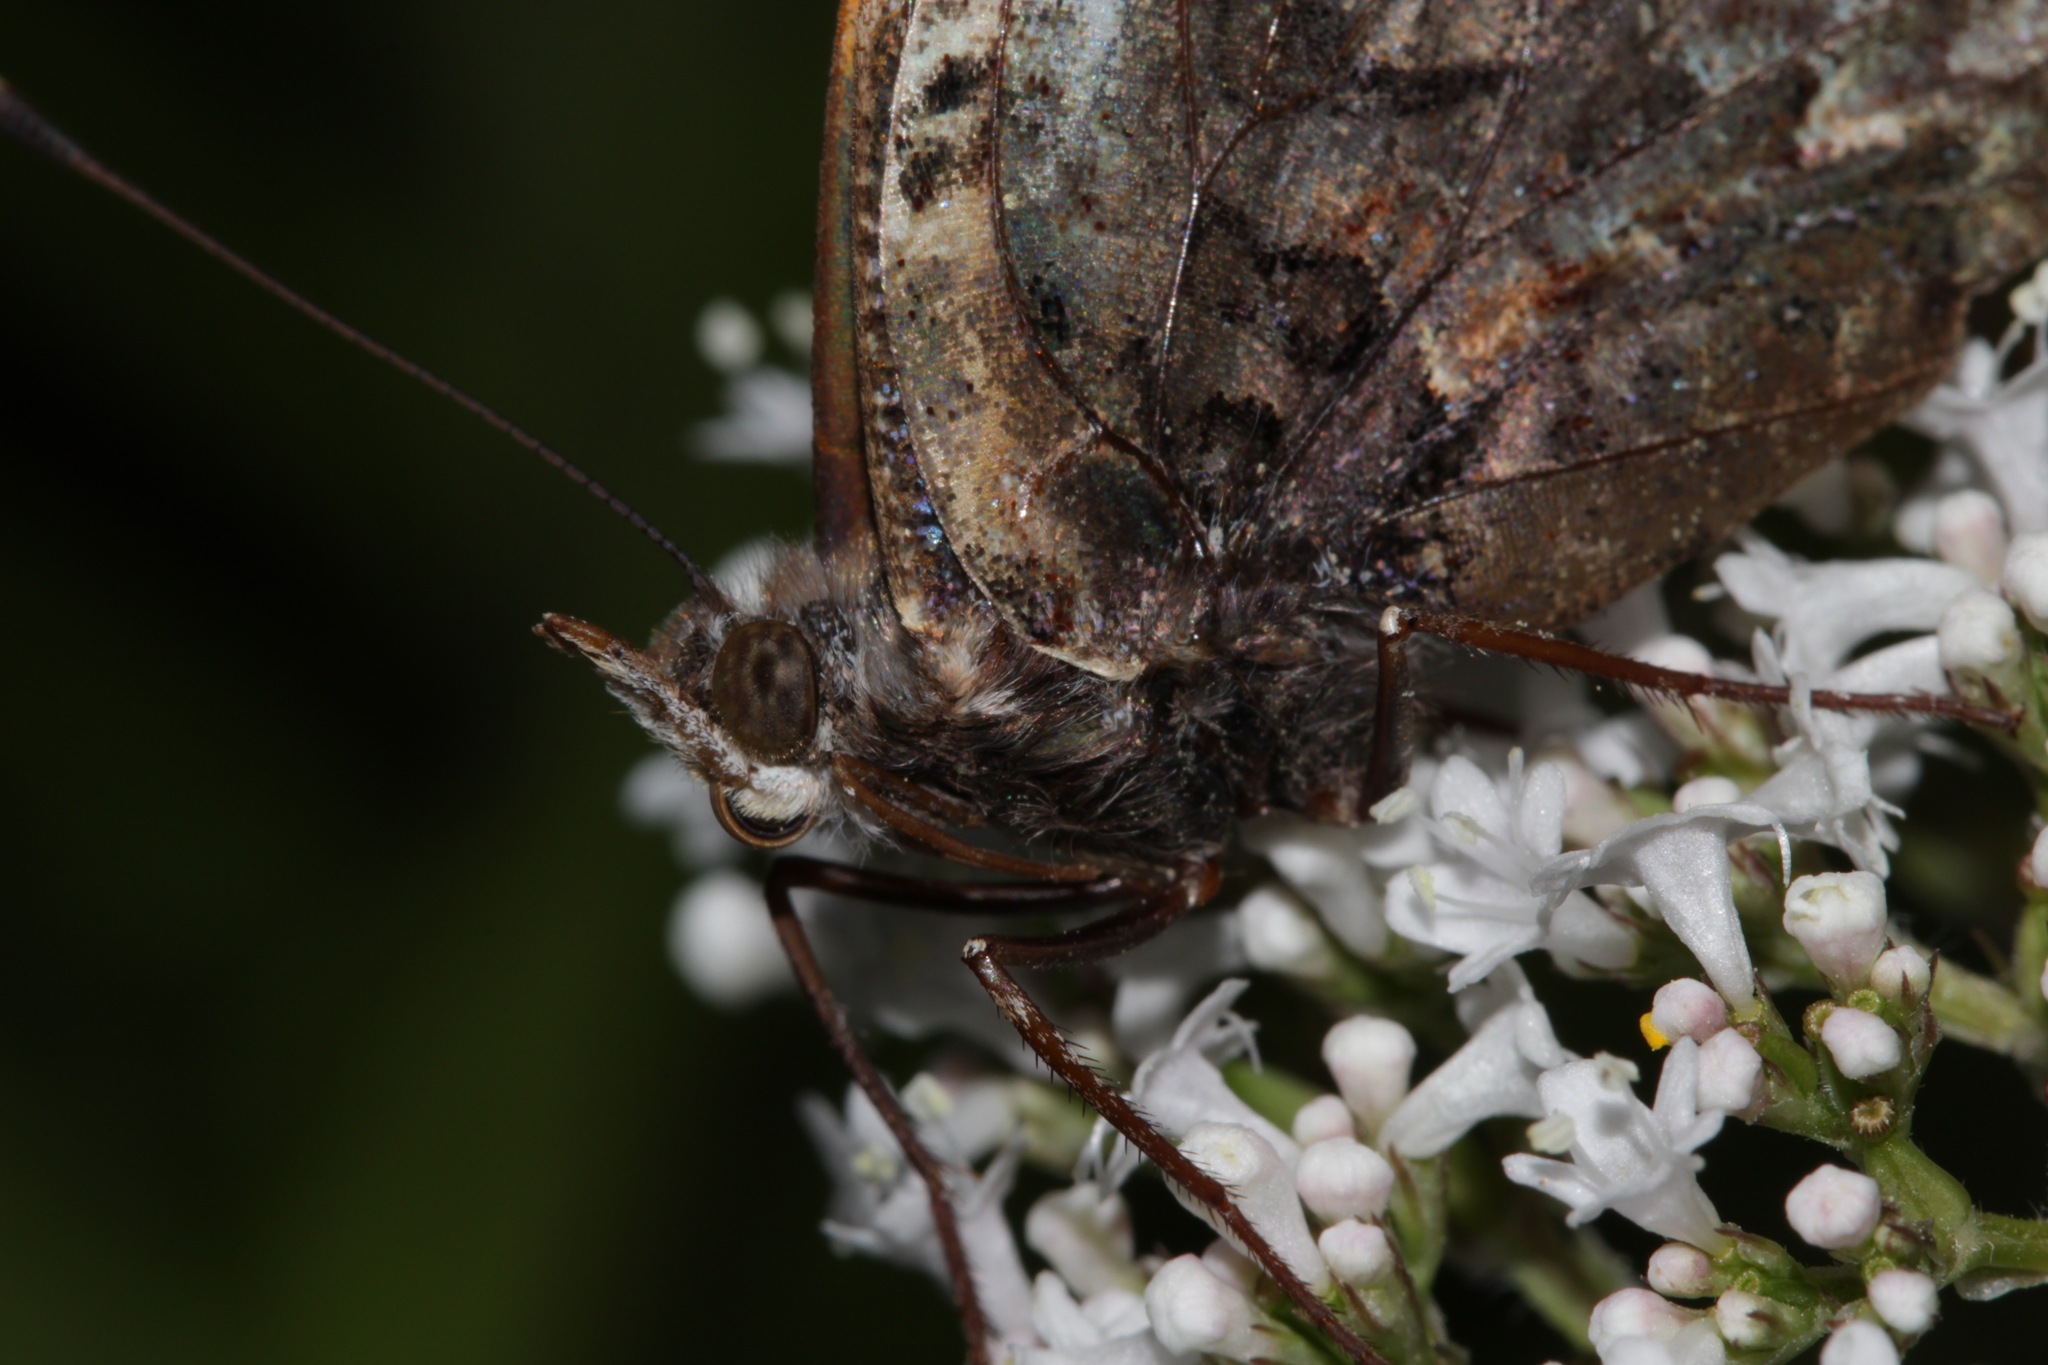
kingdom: Animalia
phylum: Arthropoda
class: Insecta
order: Lepidoptera
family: Nymphalidae
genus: Vanessa
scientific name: Vanessa atalanta
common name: Red admiral
